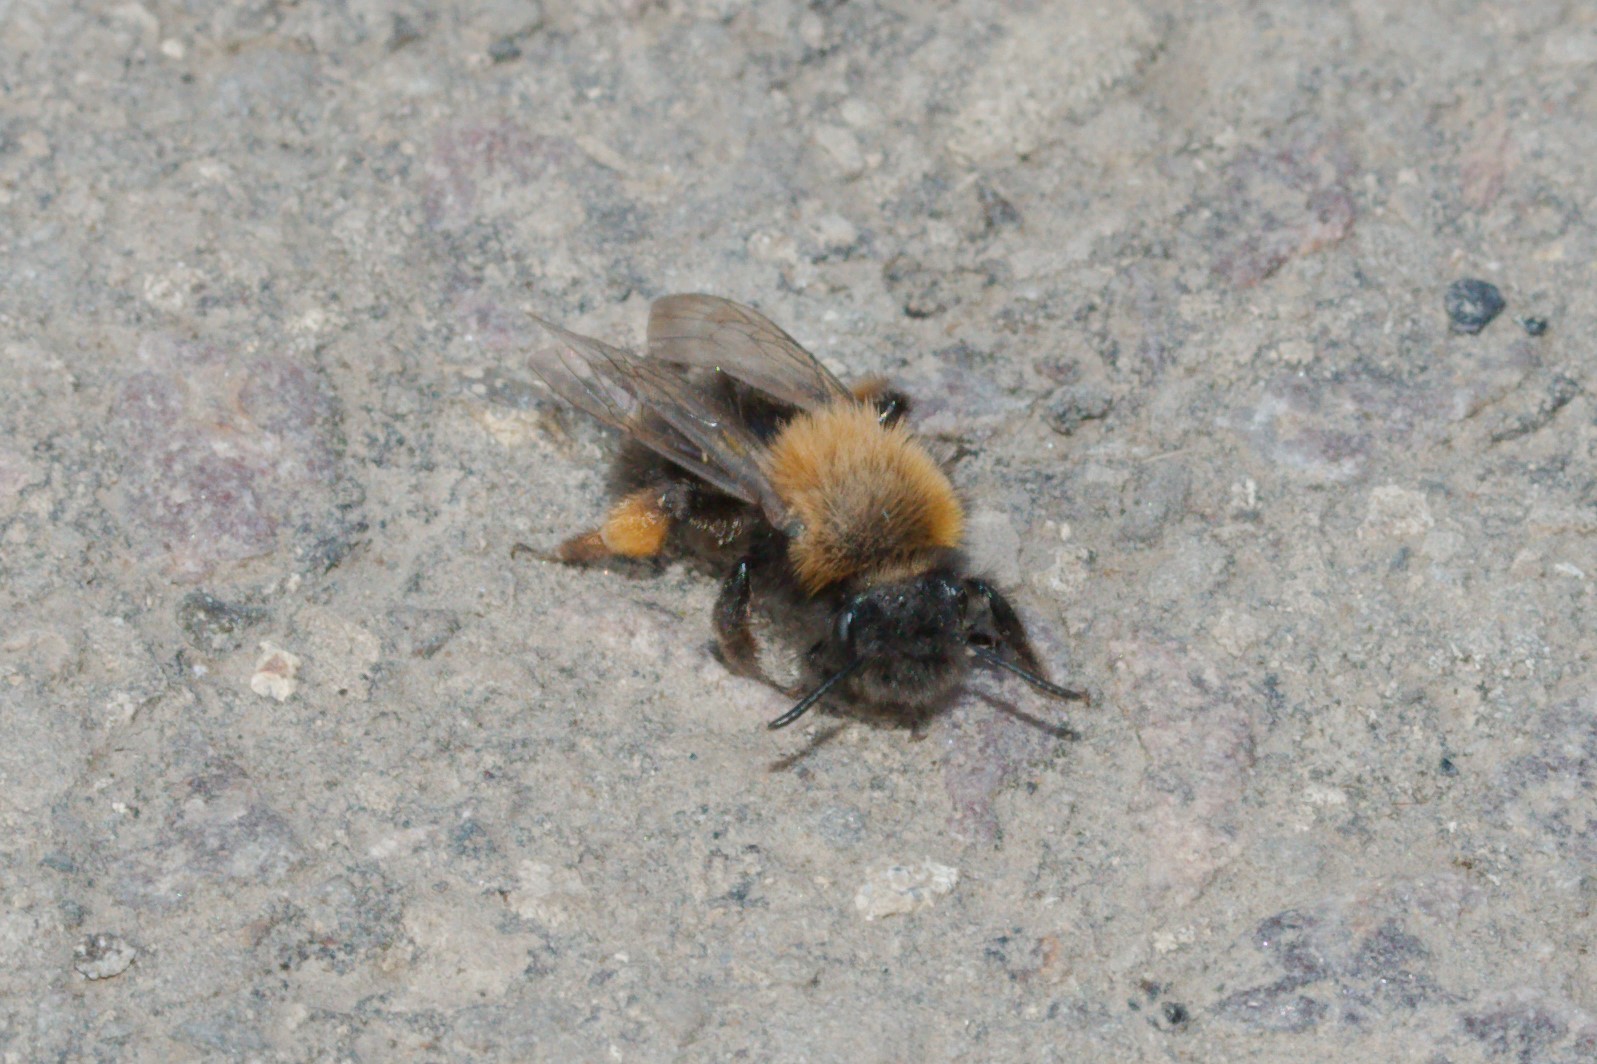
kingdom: Animalia
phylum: Arthropoda
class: Insecta
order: Hymenoptera
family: Andrenidae
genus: Andrena
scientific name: Andrena clarkella
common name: Clarke's mining bee
